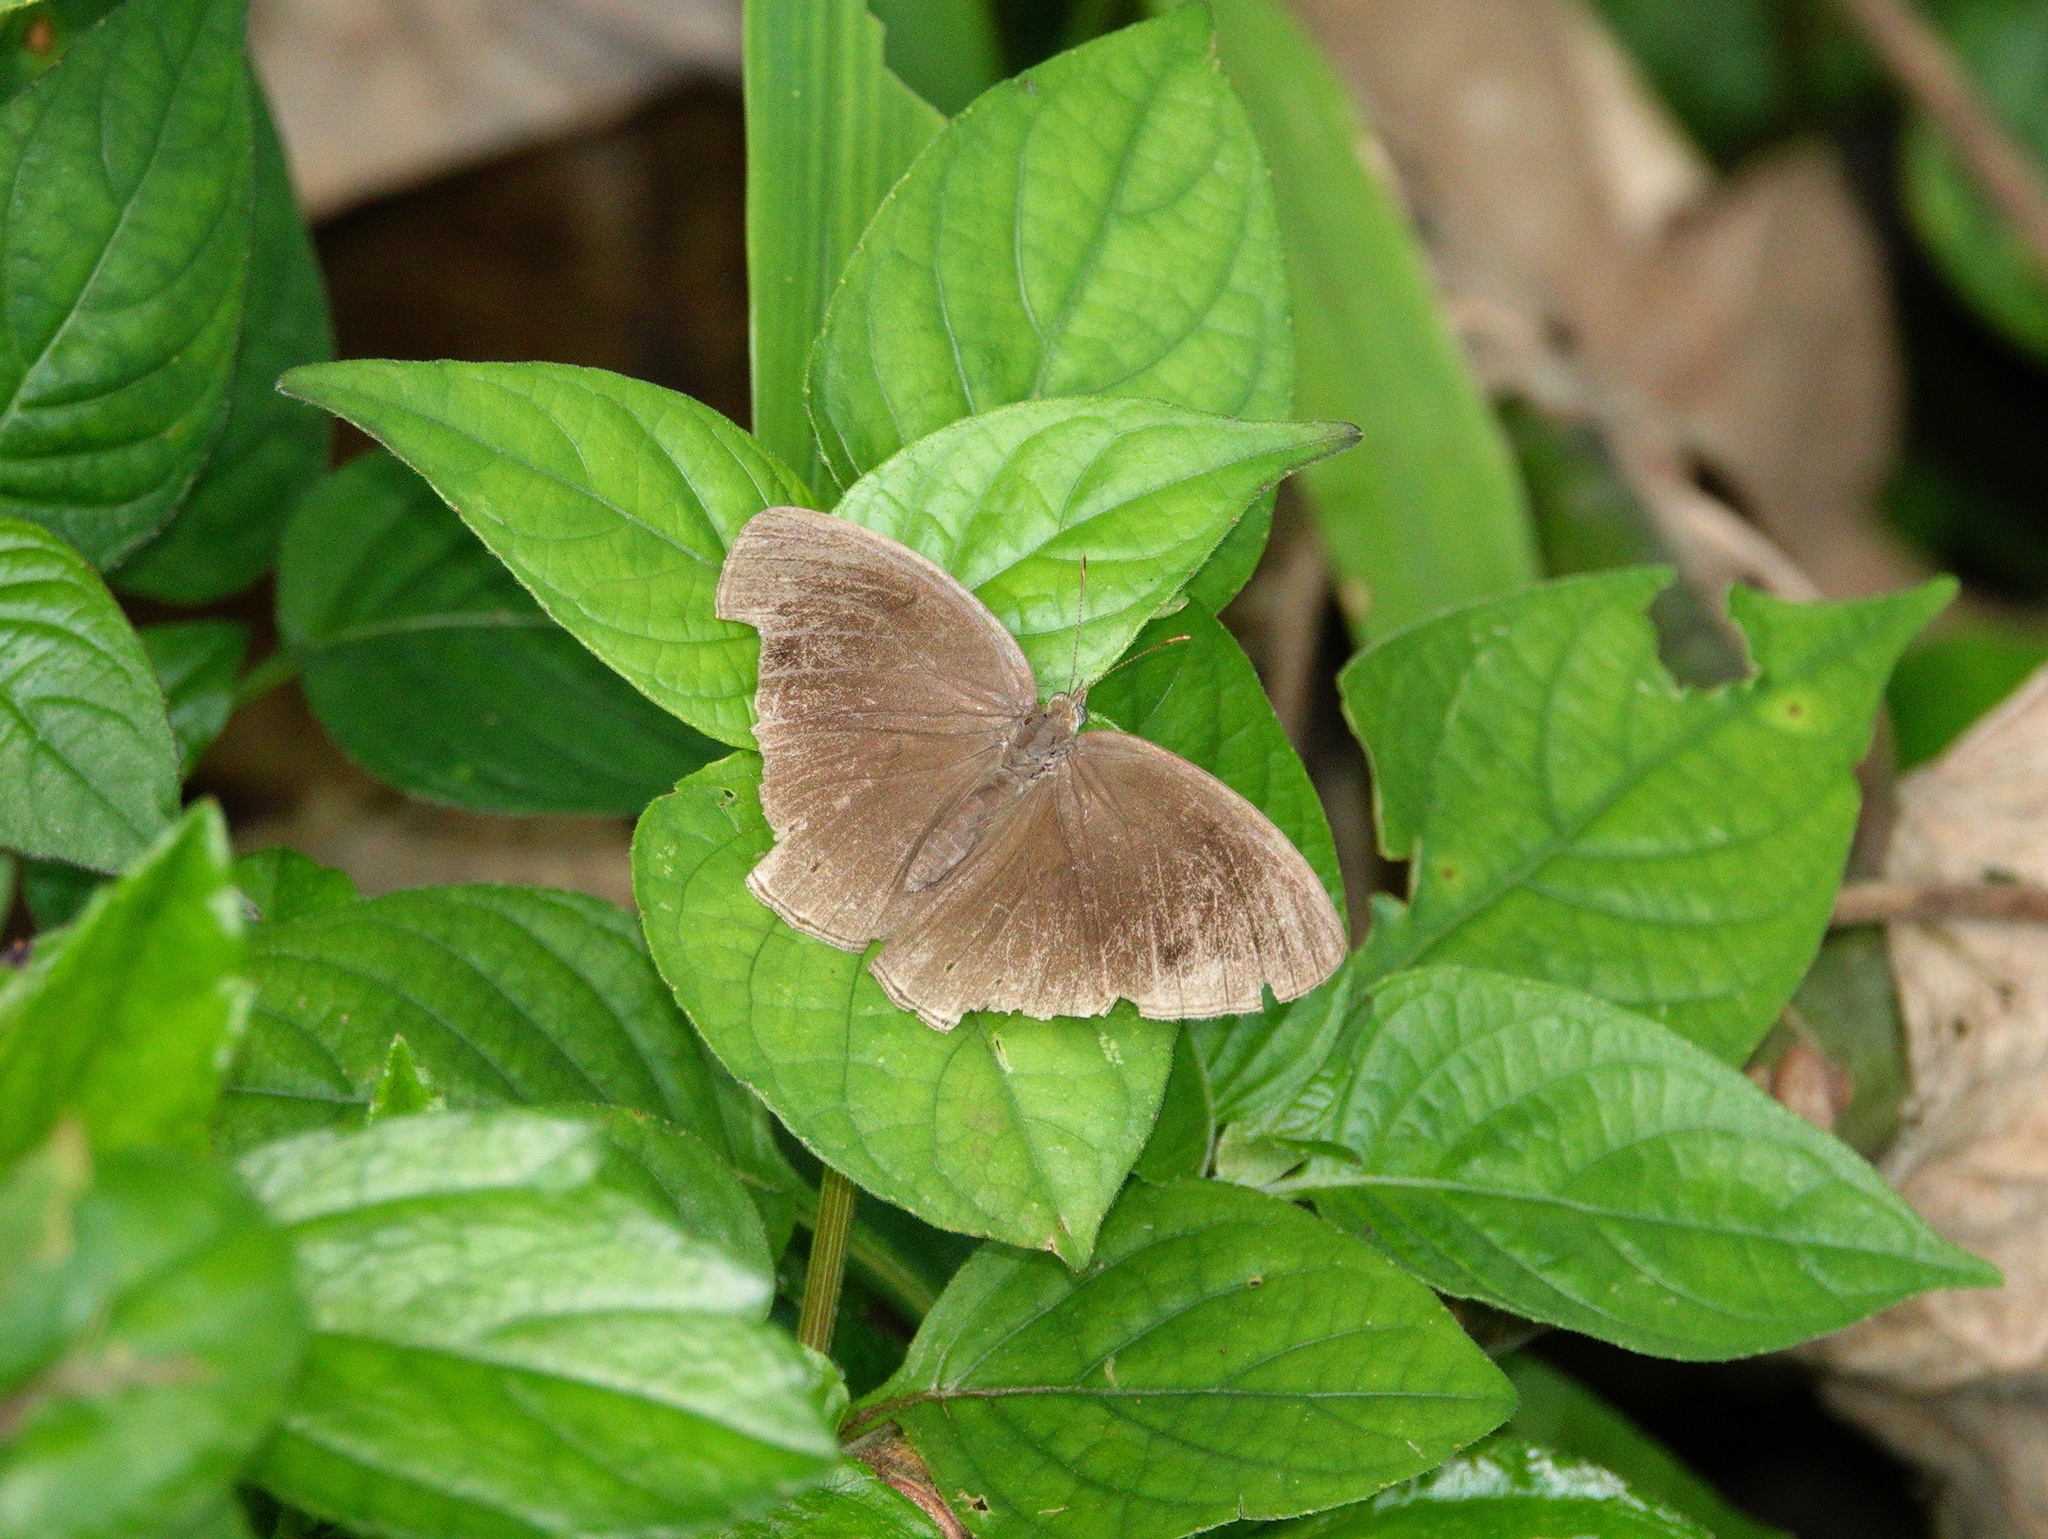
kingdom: Animalia
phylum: Arthropoda
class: Insecta
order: Lepidoptera
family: Nymphalidae
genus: Mycalesis
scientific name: Mycalesis Telinga janardana
